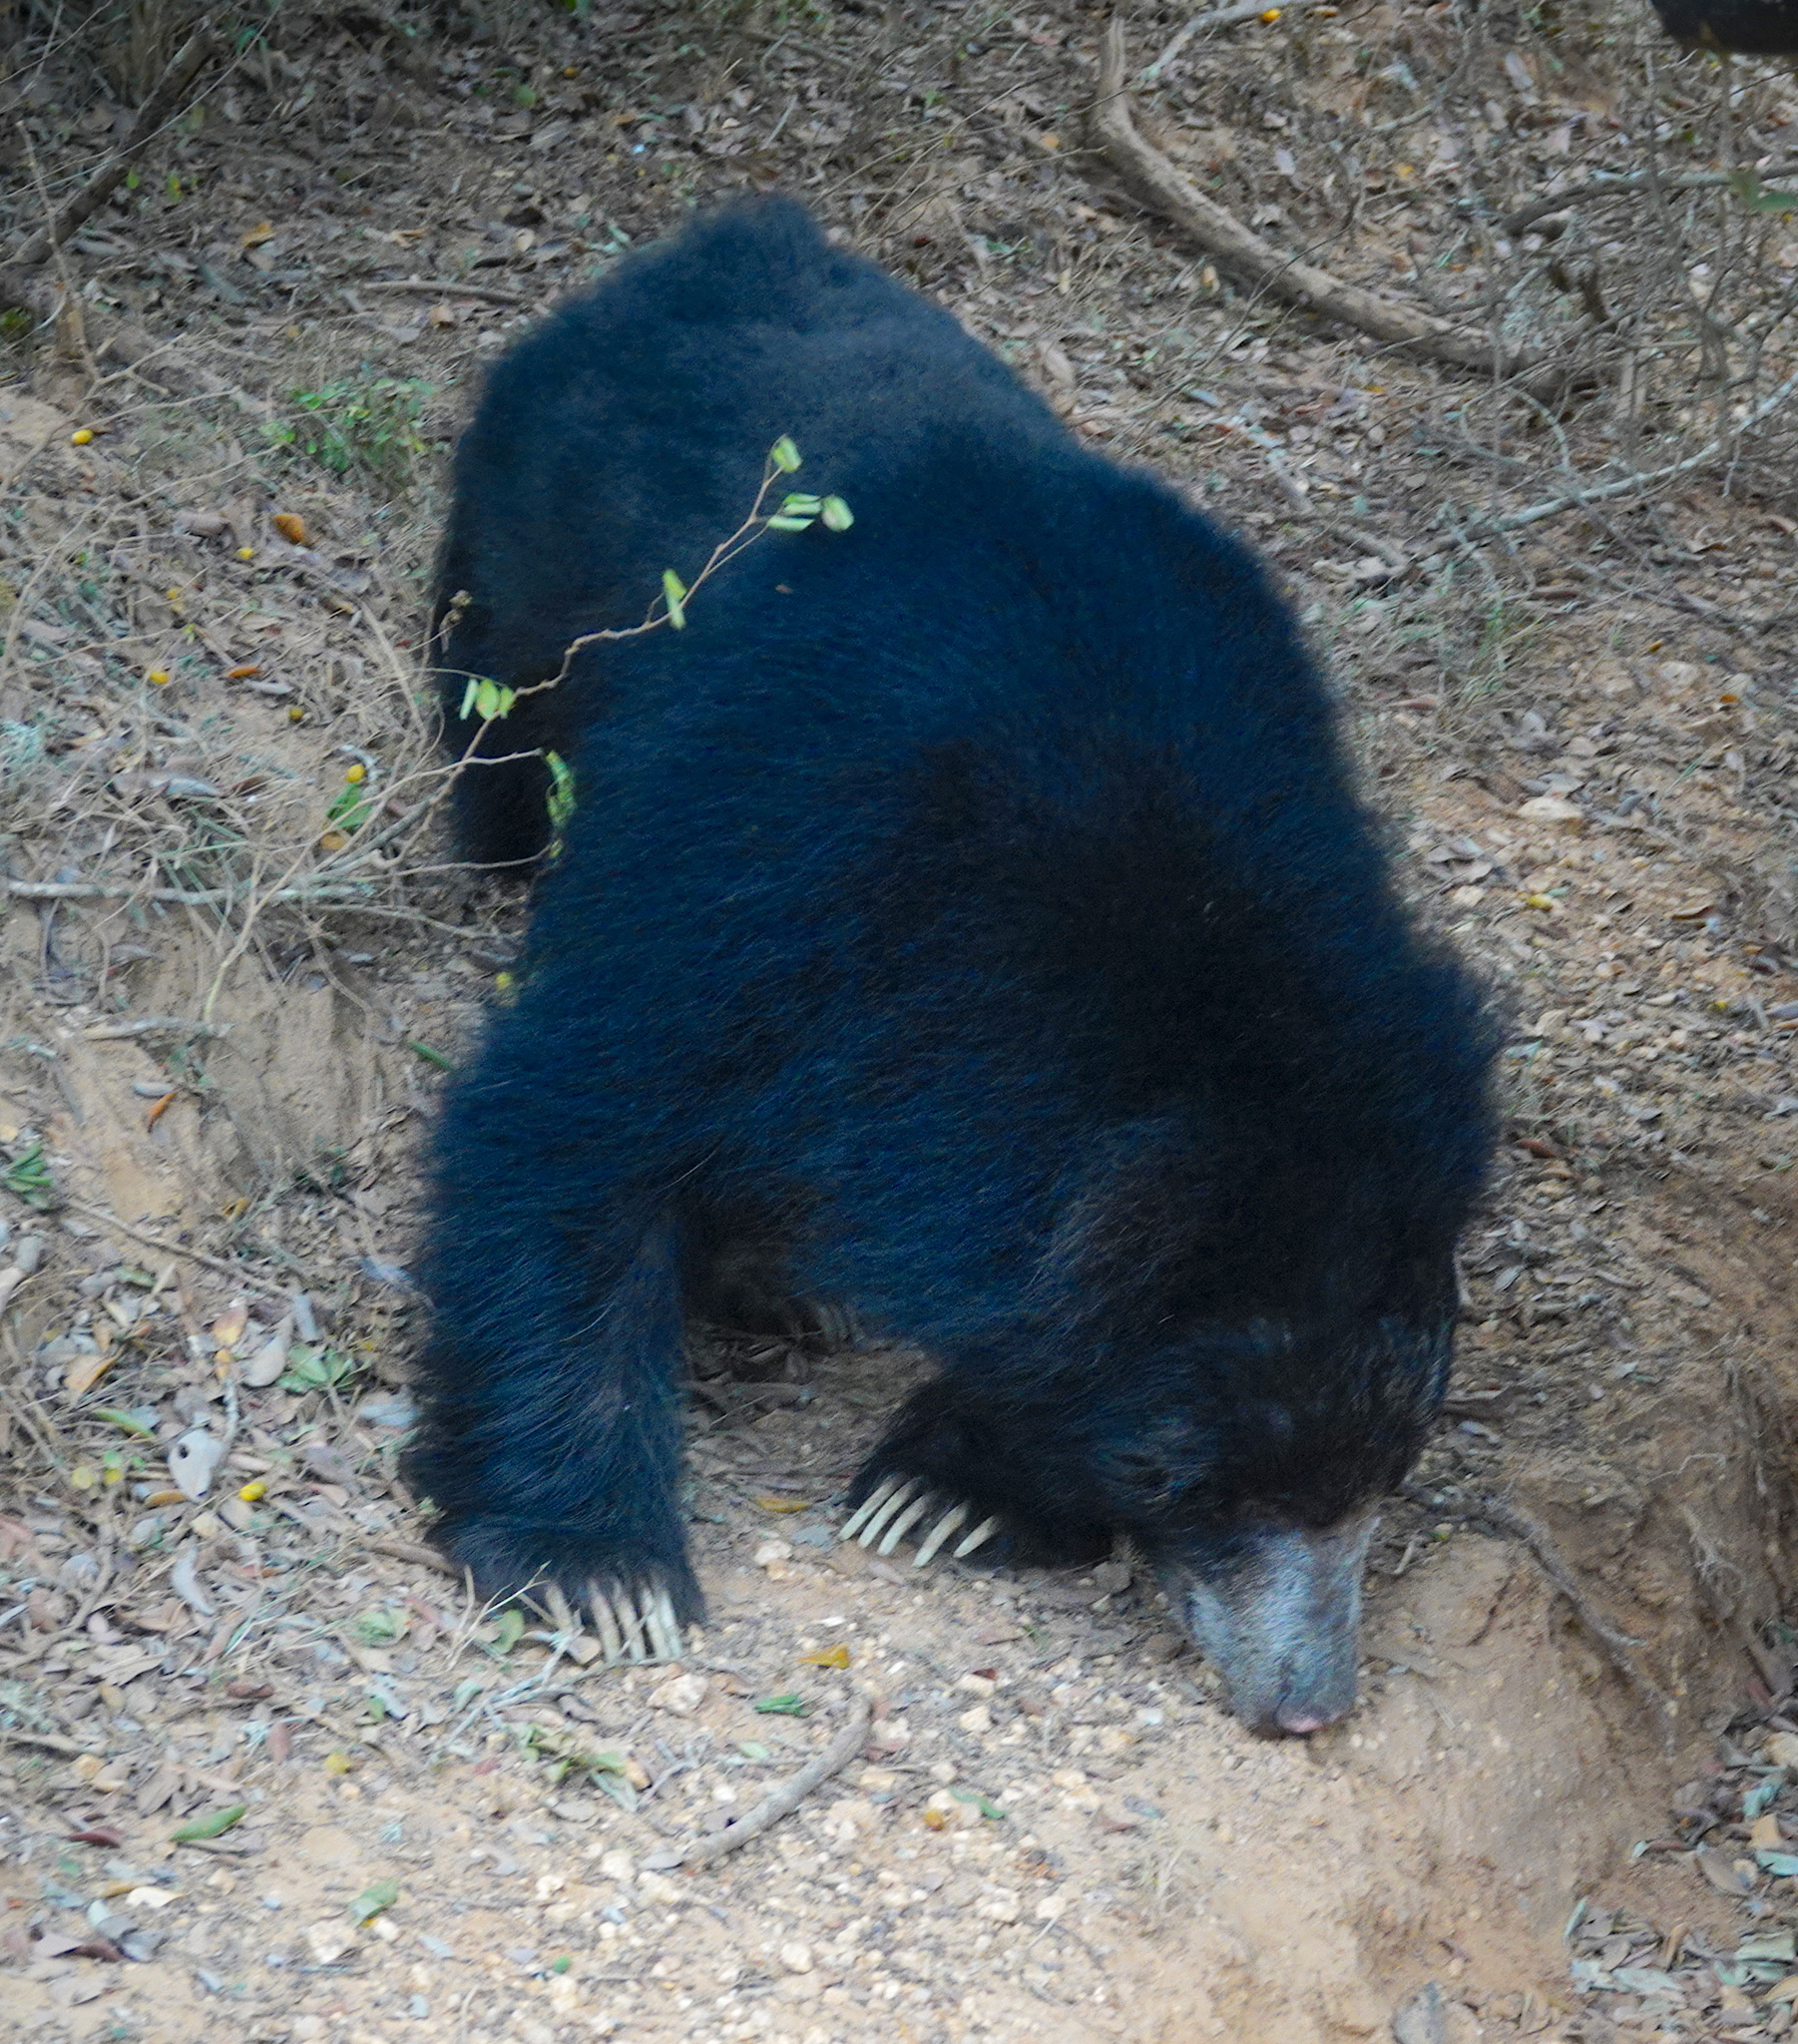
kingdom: Animalia
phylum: Chordata
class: Mammalia
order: Carnivora
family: Ursidae
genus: Melursus
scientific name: Melursus ursinus
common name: Sloth bear
